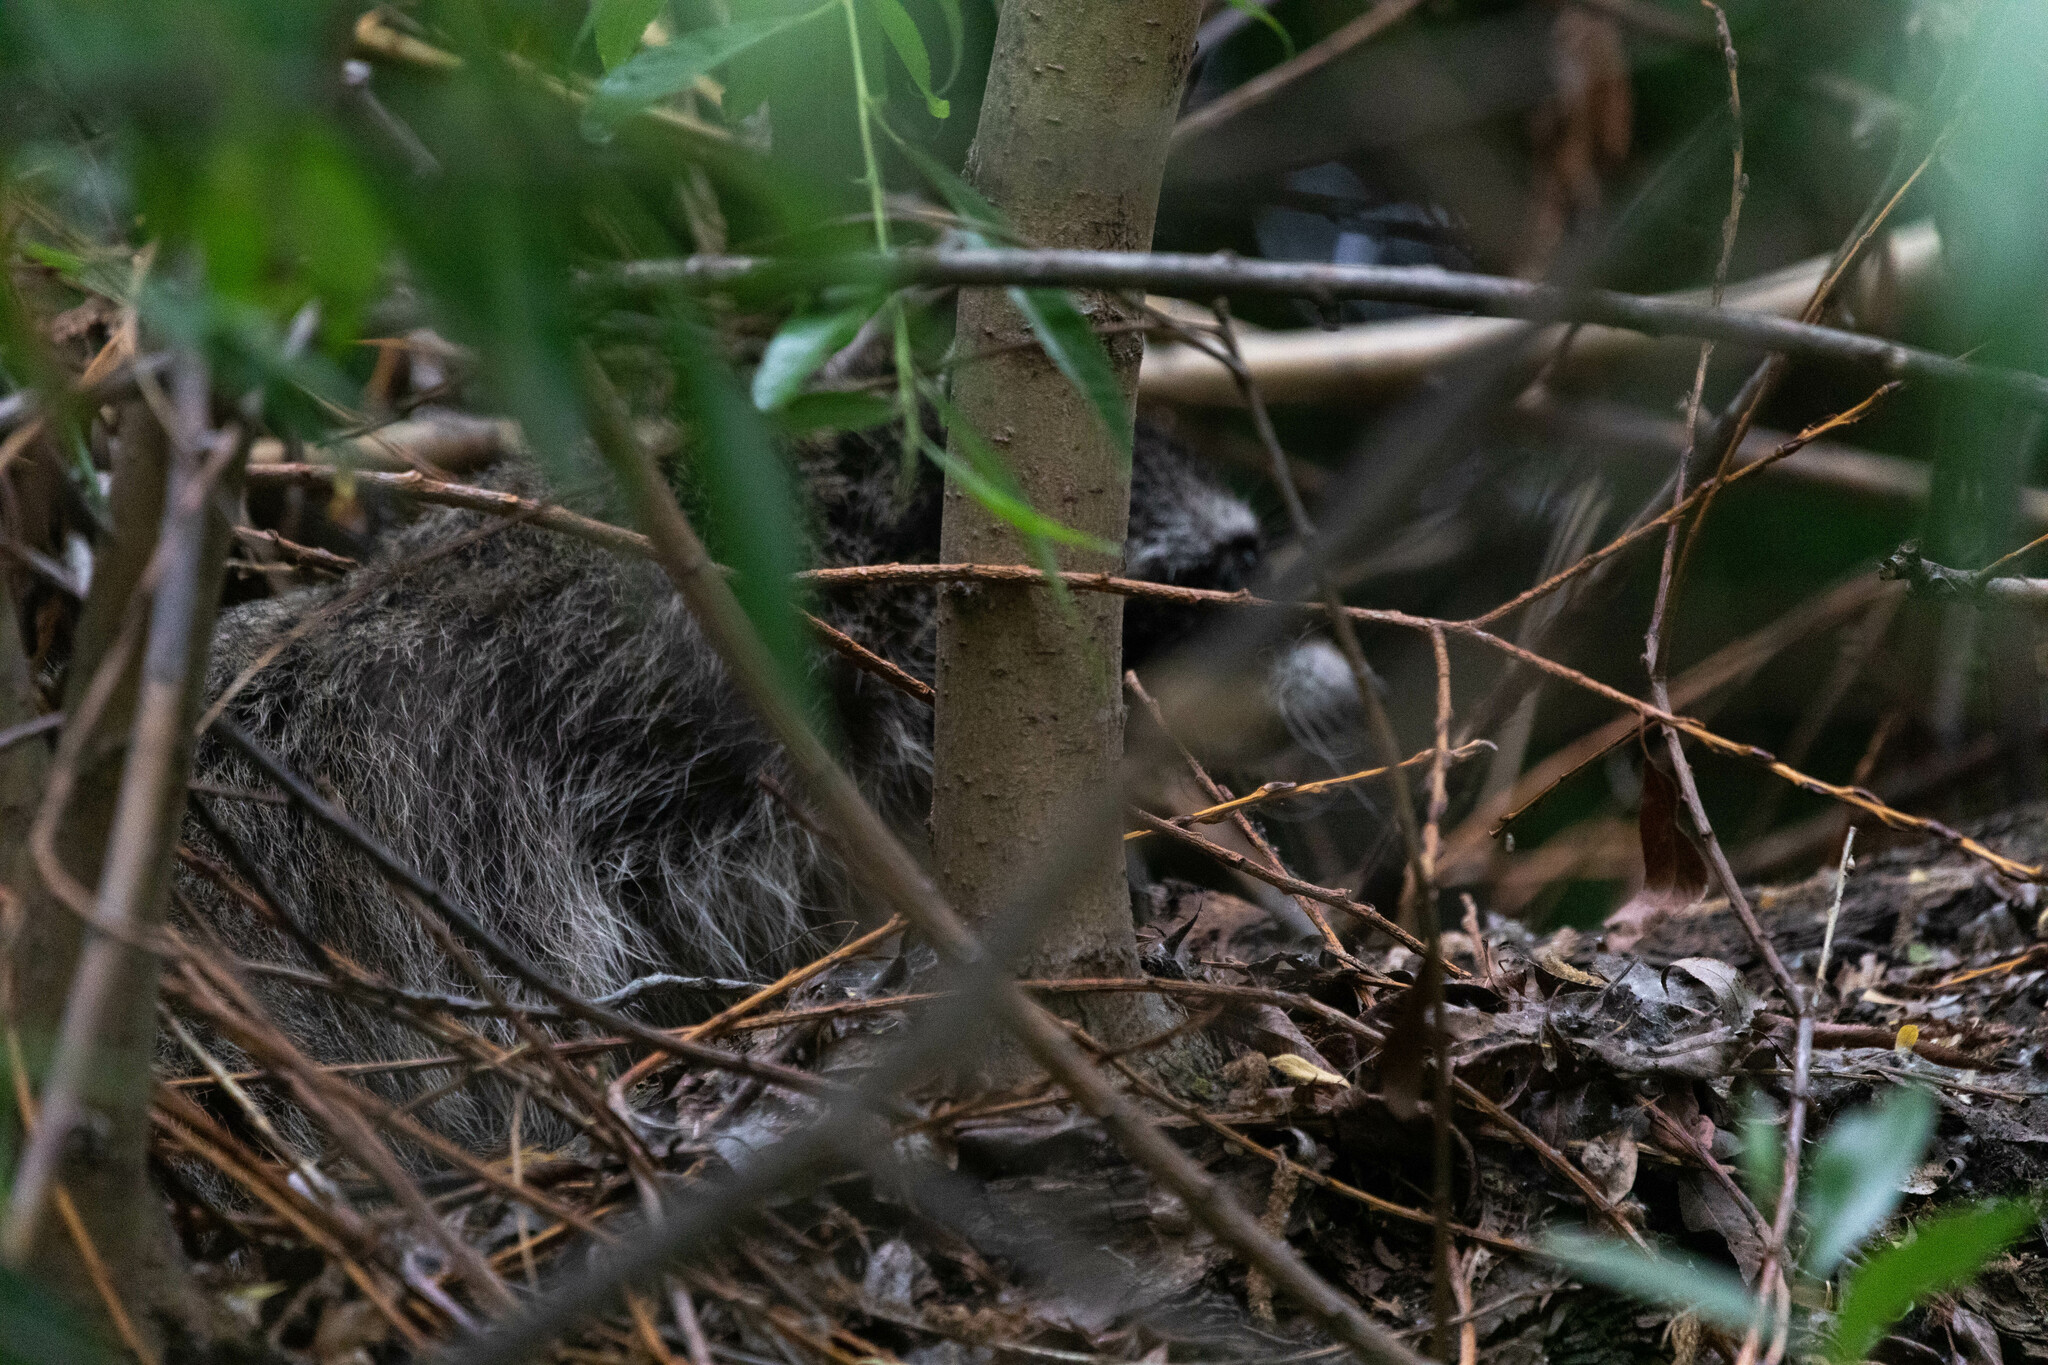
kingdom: Animalia
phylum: Chordata
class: Mammalia
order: Carnivora
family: Procyonidae
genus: Procyon
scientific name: Procyon lotor
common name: Raccoon
